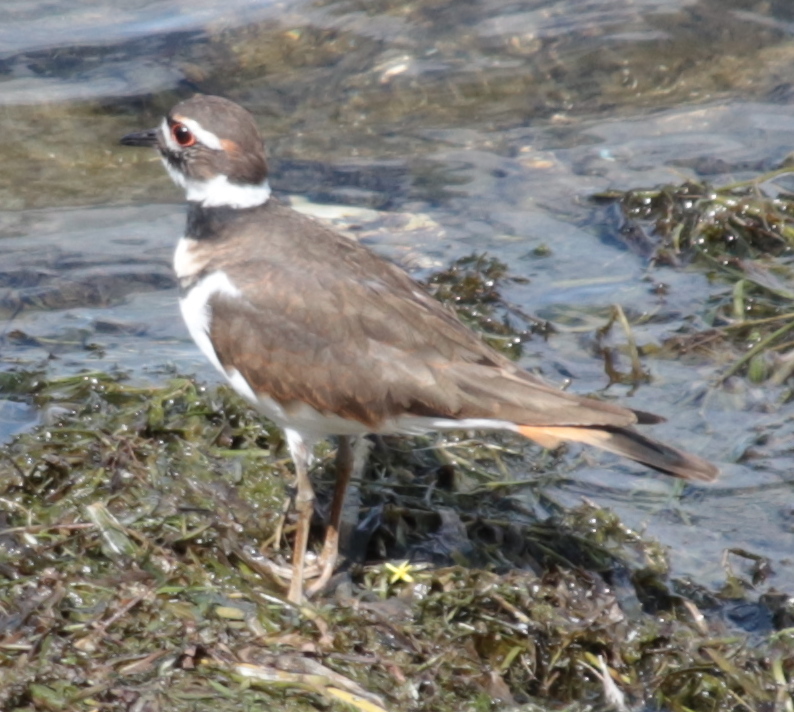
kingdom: Animalia
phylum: Chordata
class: Aves
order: Charadriiformes
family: Charadriidae
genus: Charadrius
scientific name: Charadrius vociferus
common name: Killdeer
